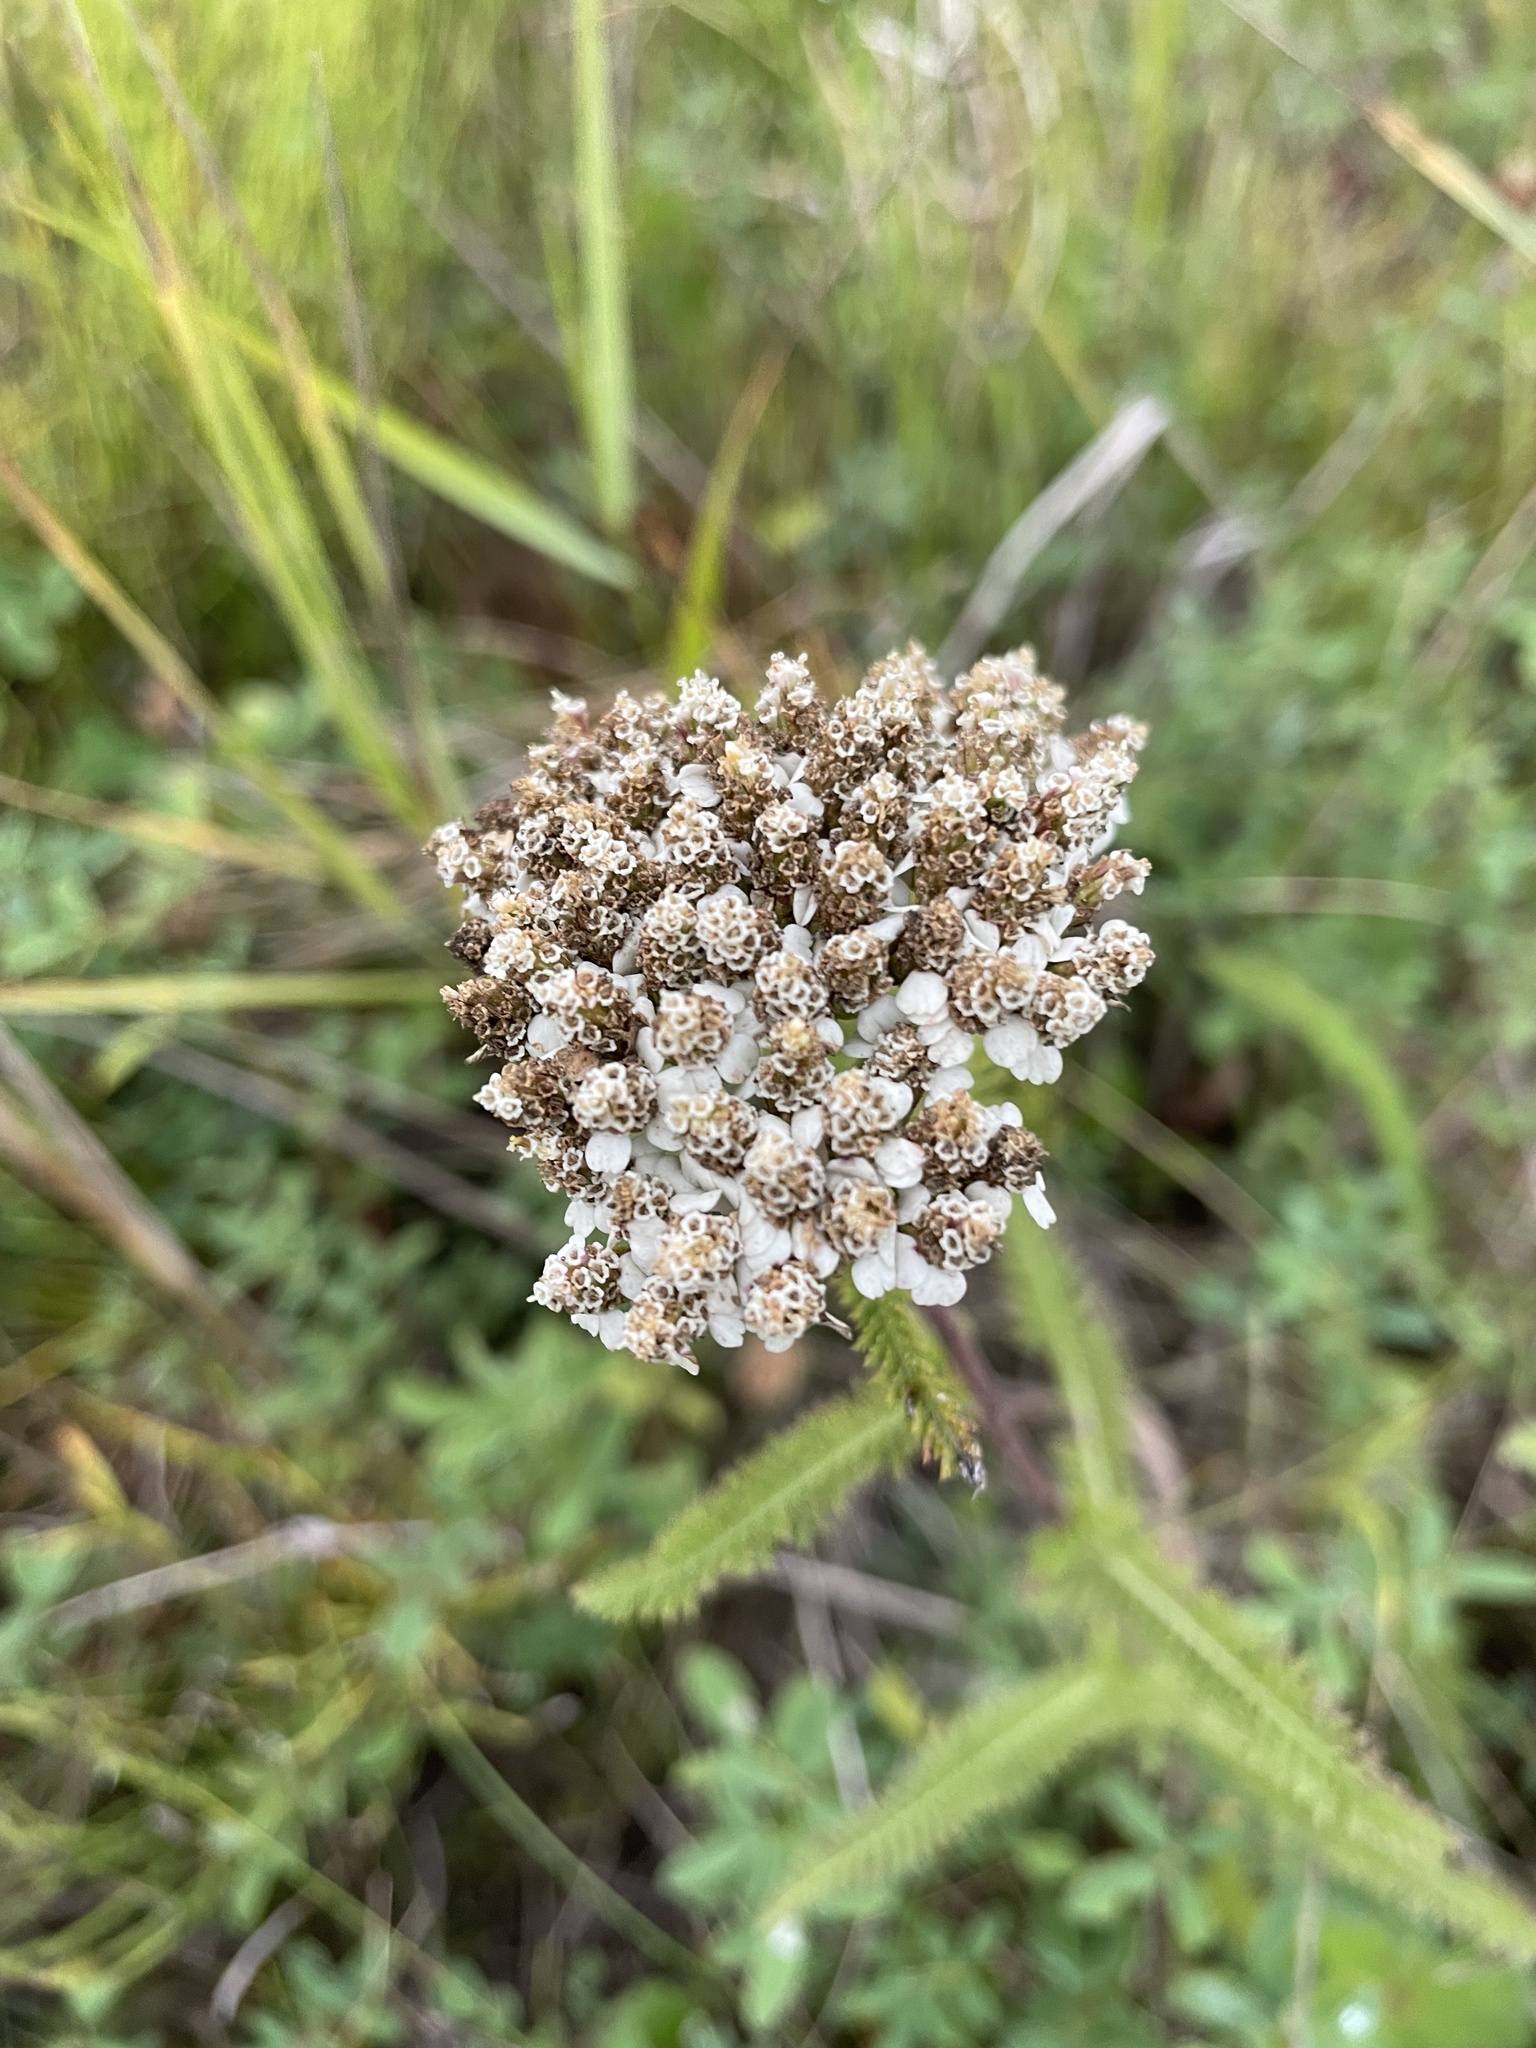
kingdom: Plantae
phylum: Tracheophyta
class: Magnoliopsida
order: Asterales
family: Asteraceae
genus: Achillea
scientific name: Achillea millefolium
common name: Yarrow
